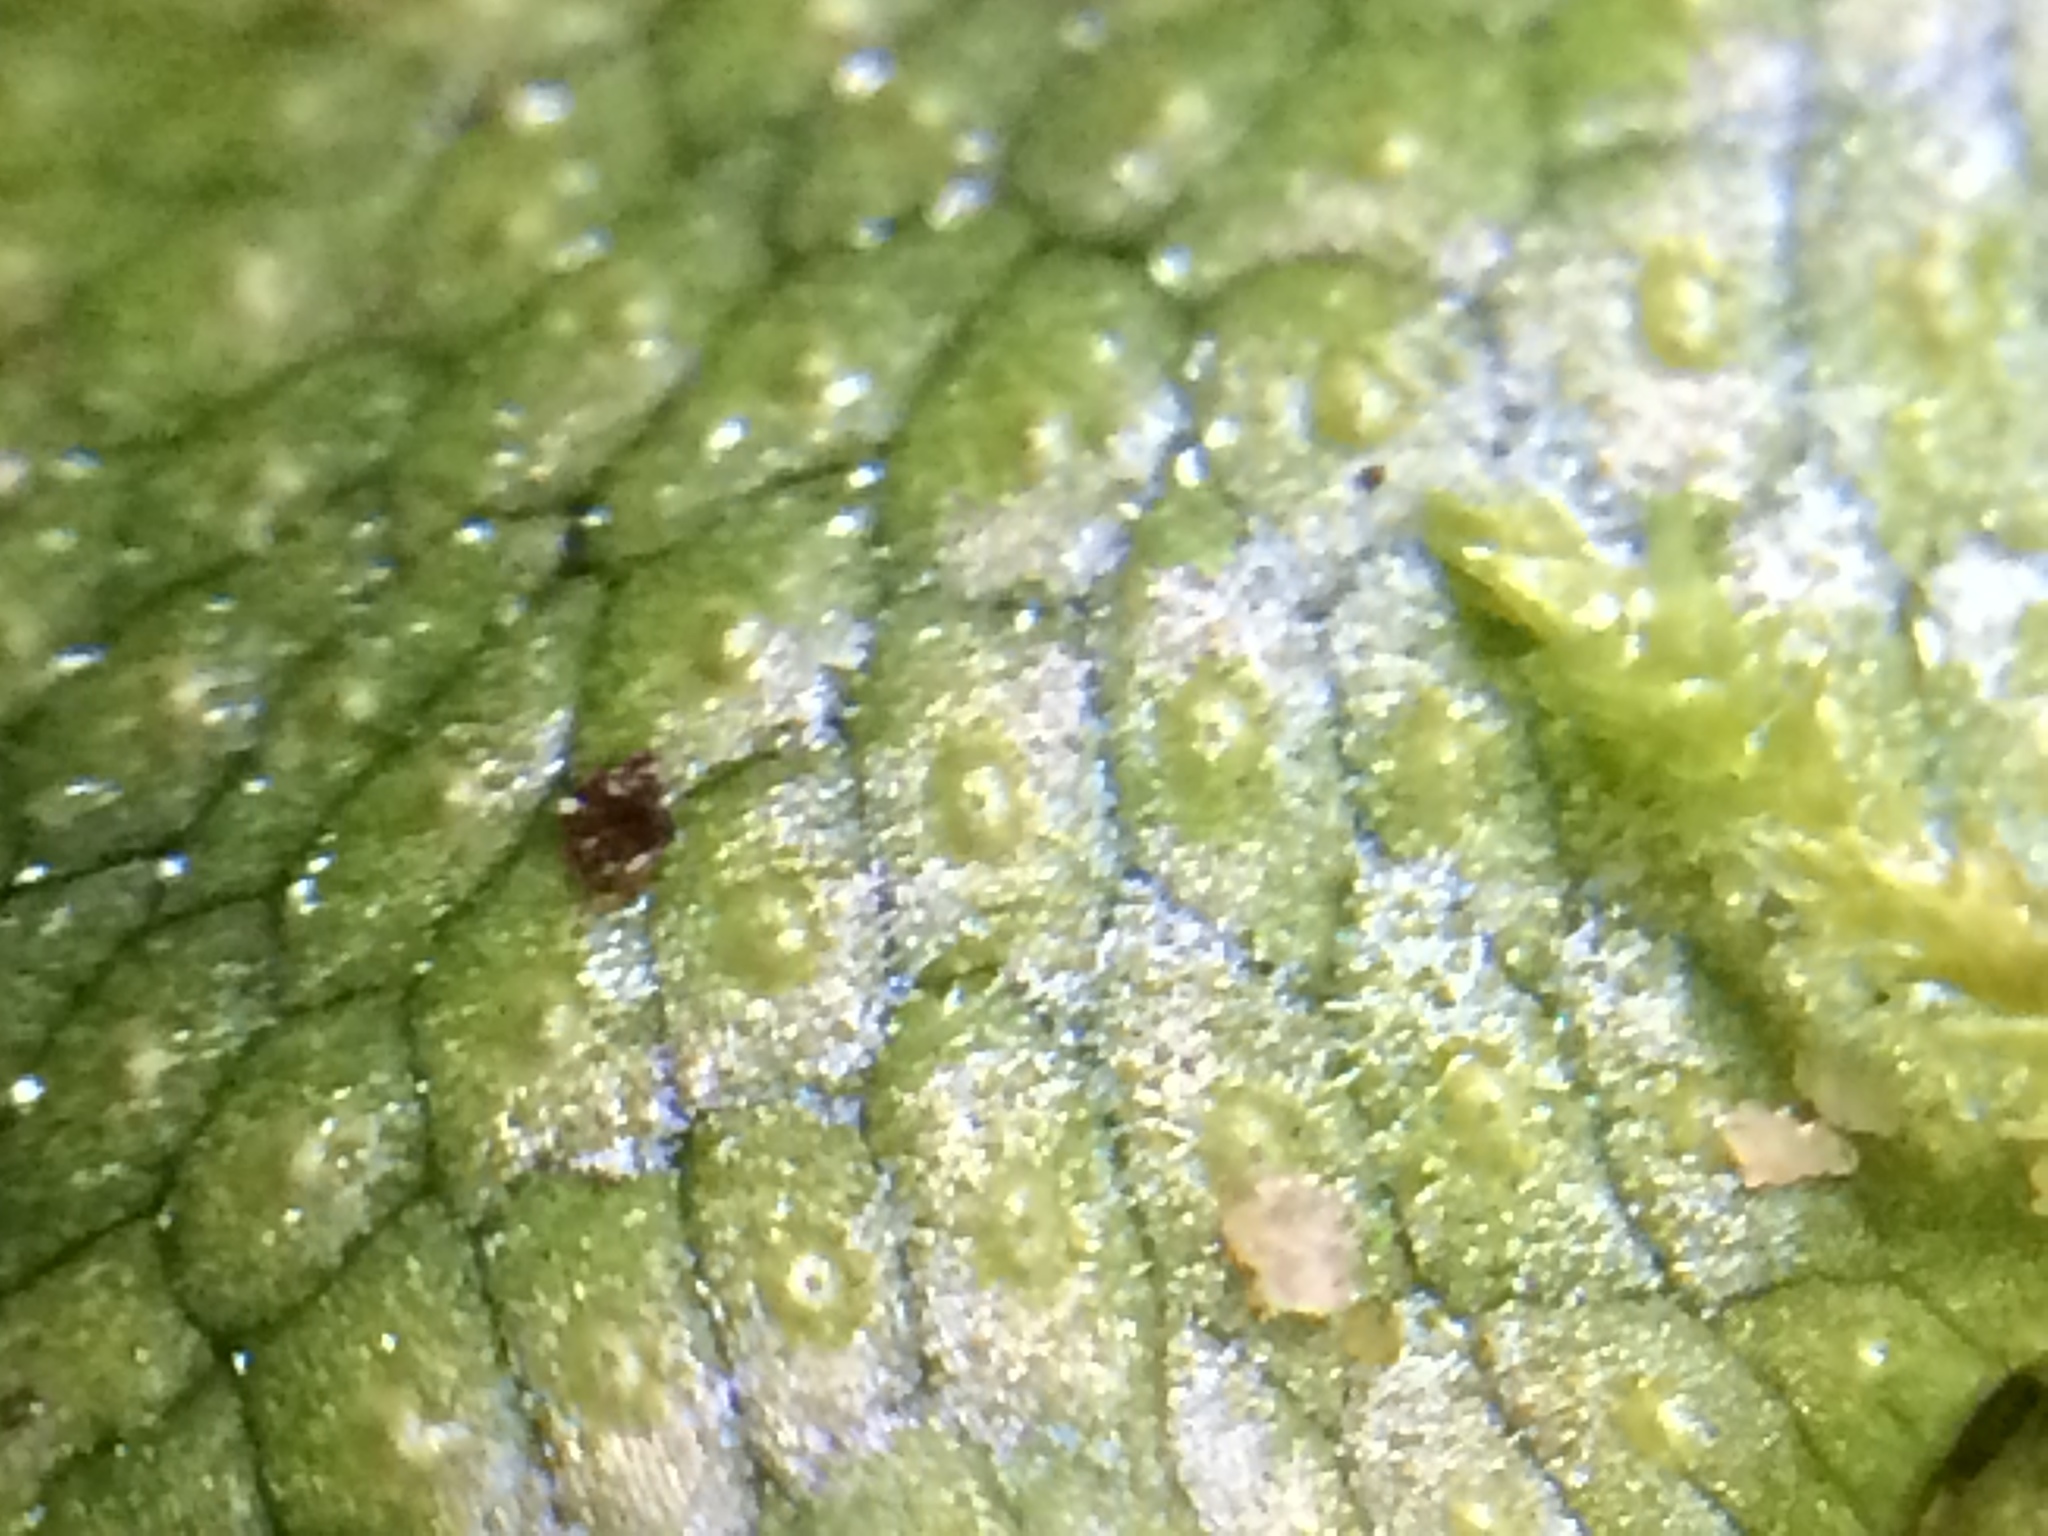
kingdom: Plantae
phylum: Marchantiophyta
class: Marchantiopsida
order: Marchantiales
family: Conocephalaceae
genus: Conocephalum
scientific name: Conocephalum salebrosum
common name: Cat-tongue liverwort
